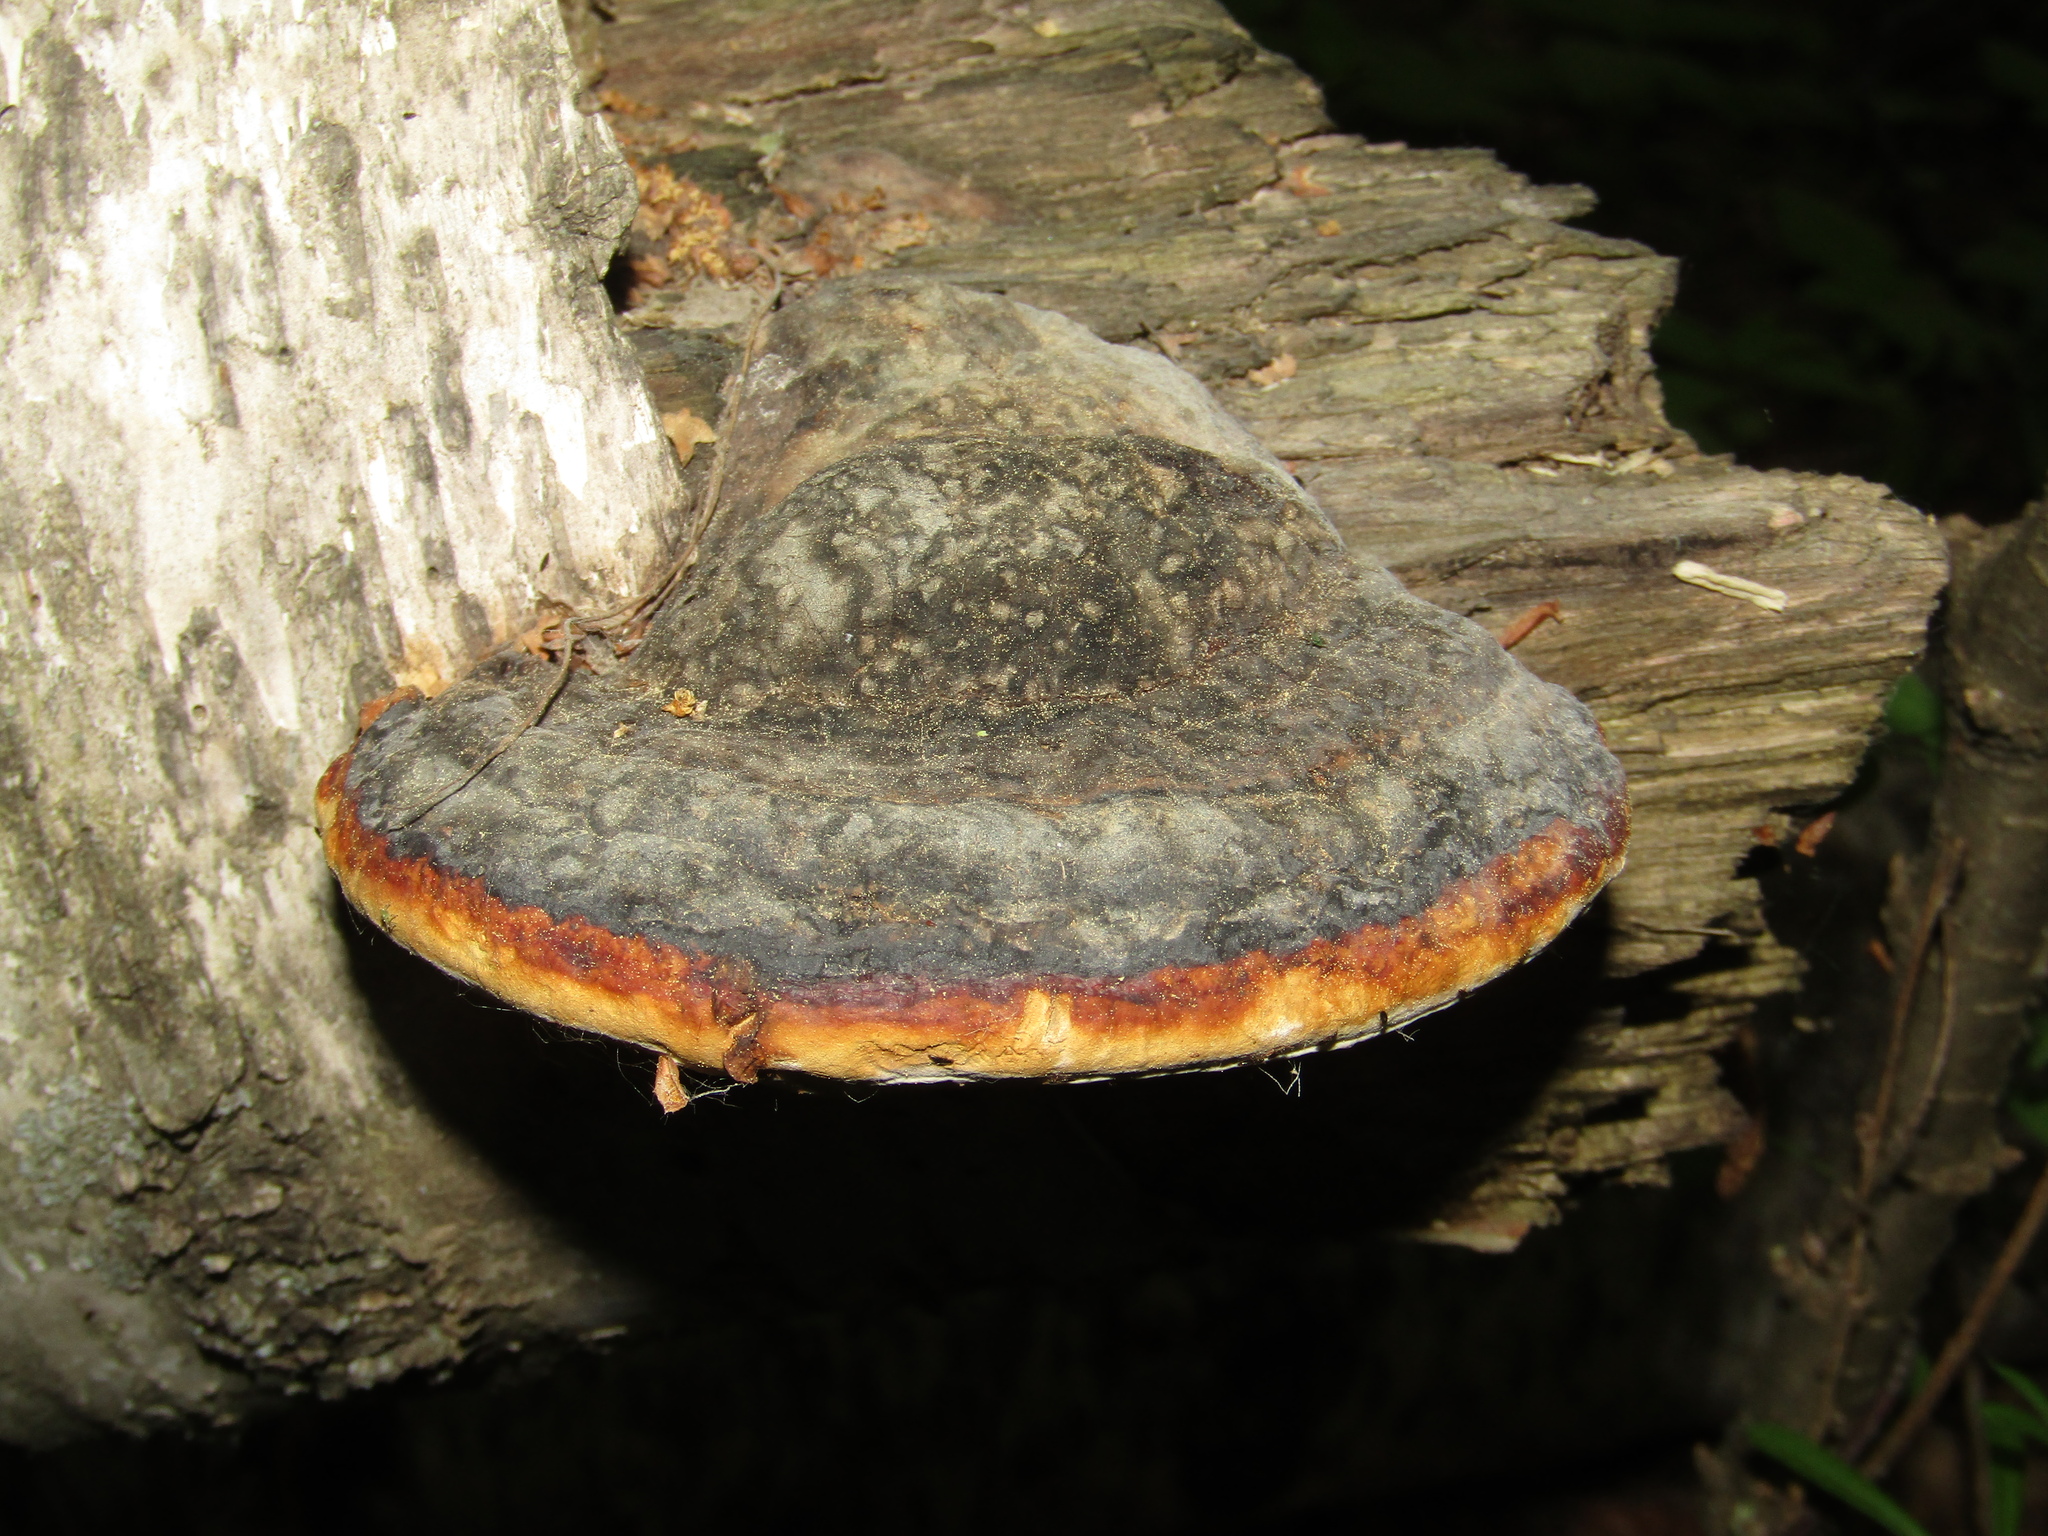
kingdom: Fungi
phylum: Basidiomycota
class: Agaricomycetes
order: Polyporales
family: Fomitopsidaceae
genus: Fomitopsis
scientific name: Fomitopsis pinicola
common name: Red-belted bracket
